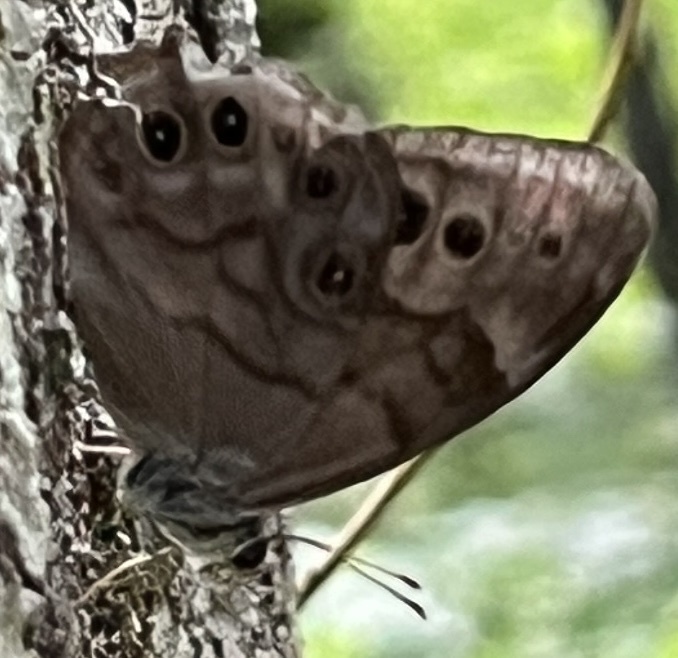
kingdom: Animalia
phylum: Arthropoda
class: Insecta
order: Lepidoptera
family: Nymphalidae
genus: Lethe
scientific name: Lethe anthedon
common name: Northern pearly-eye
